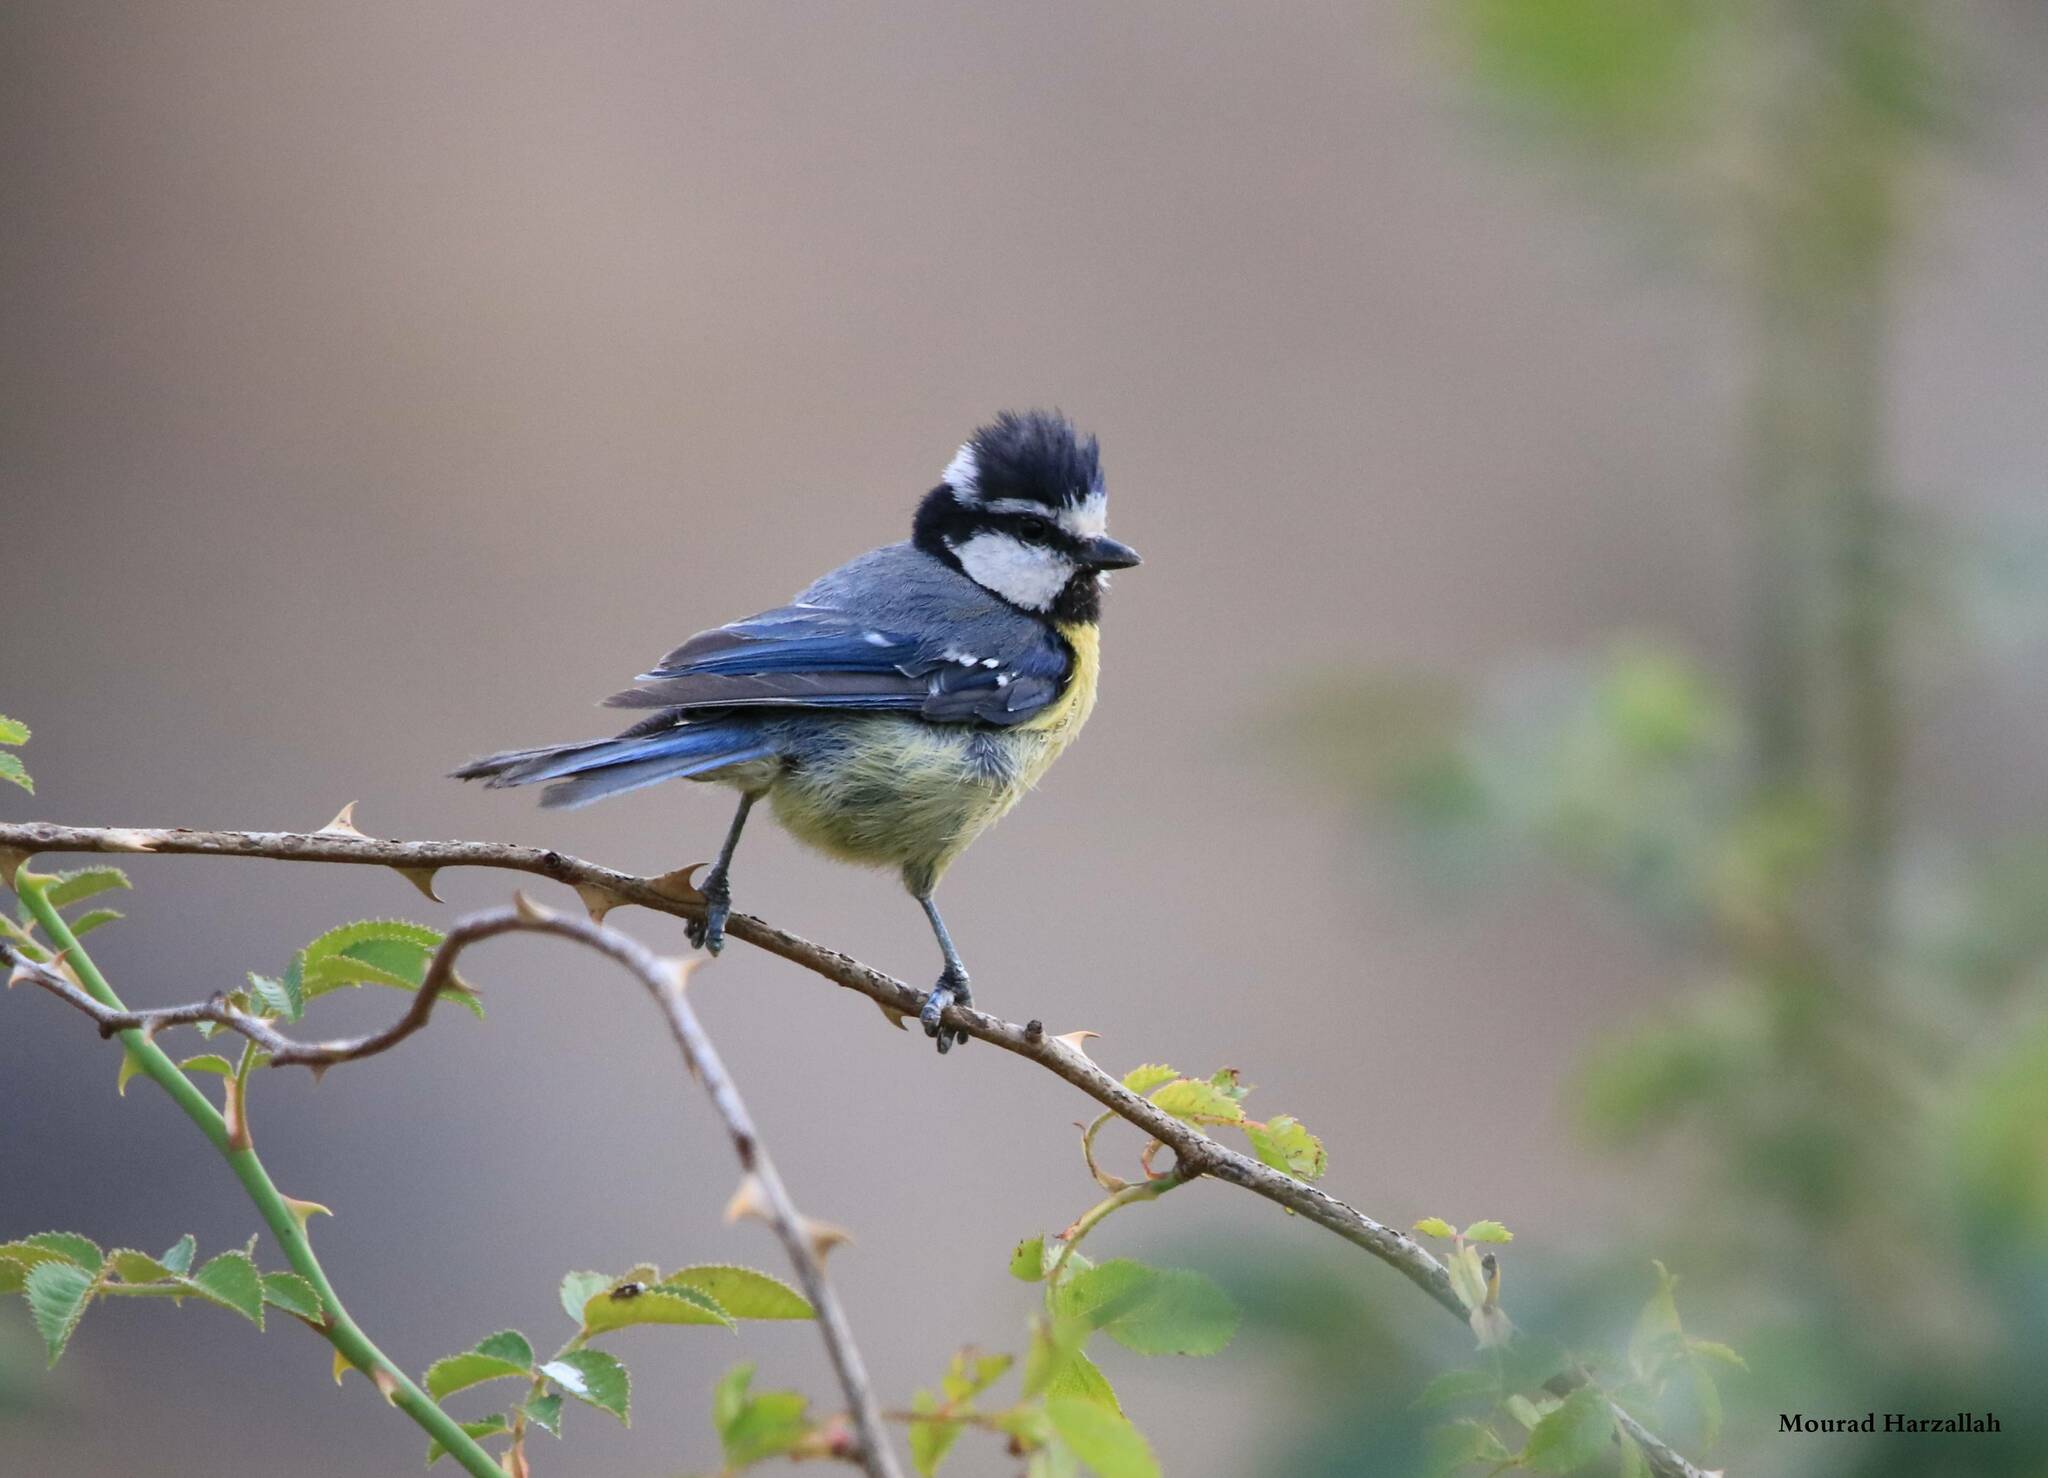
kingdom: Animalia
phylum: Chordata
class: Aves
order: Passeriformes
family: Paridae
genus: Cyanistes
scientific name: Cyanistes teneriffae
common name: African blue tit
